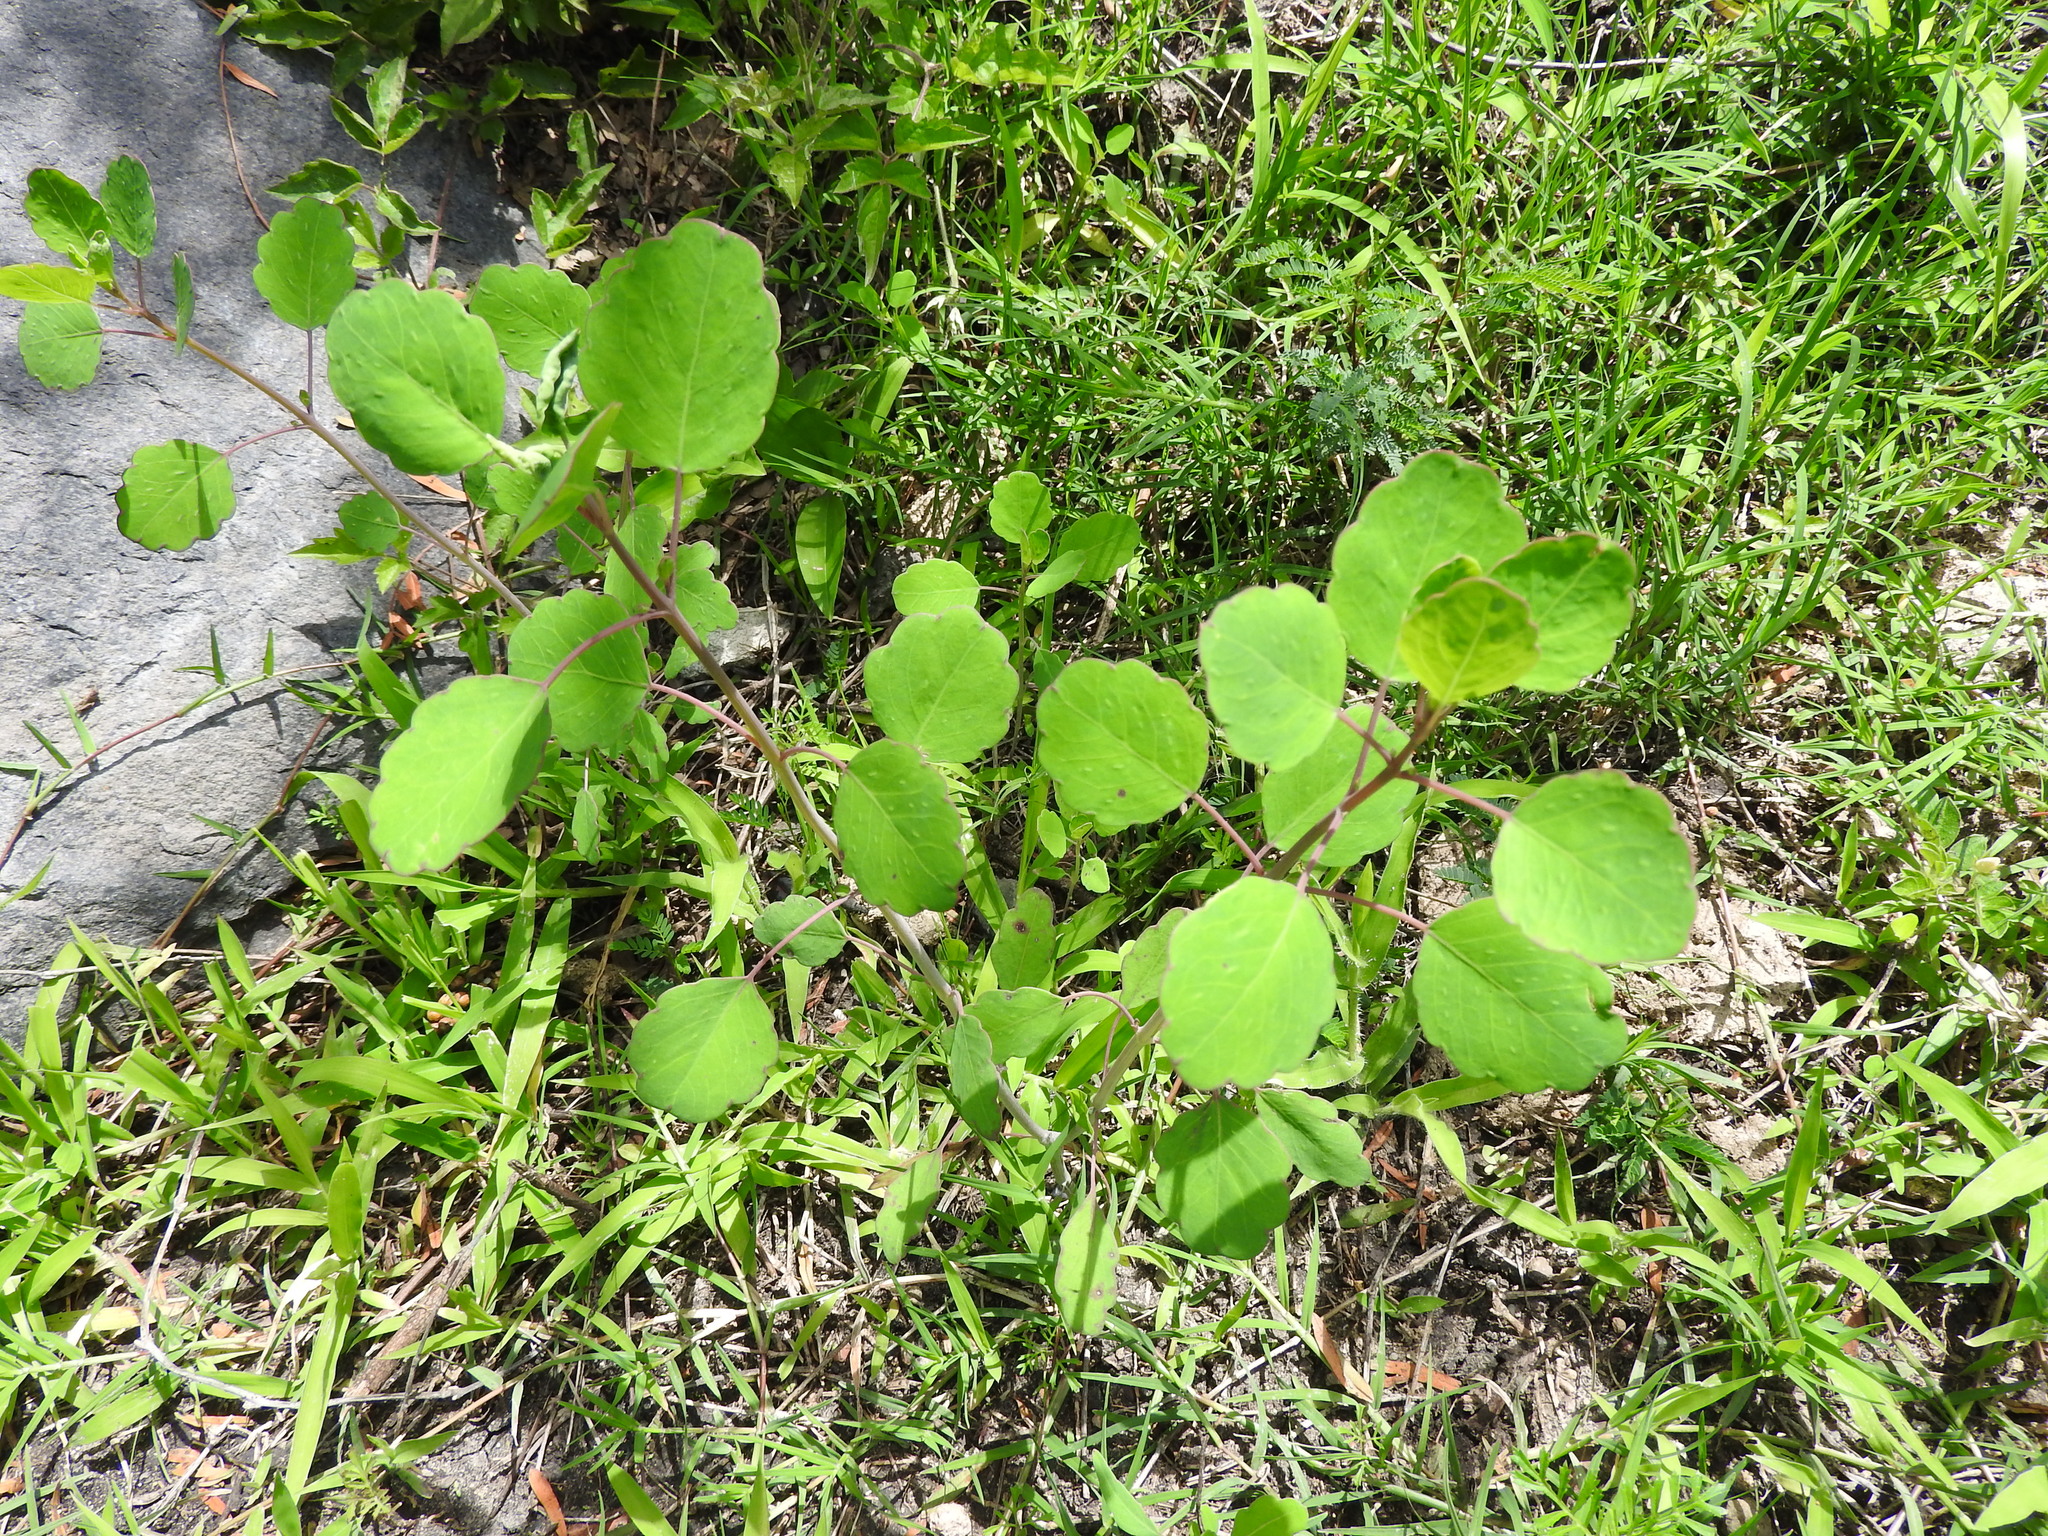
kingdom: Plantae
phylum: Tracheophyta
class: Magnoliopsida
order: Asterales
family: Asteraceae
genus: Porophyllum
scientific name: Porophyllum ruderale
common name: Yerba porosa
